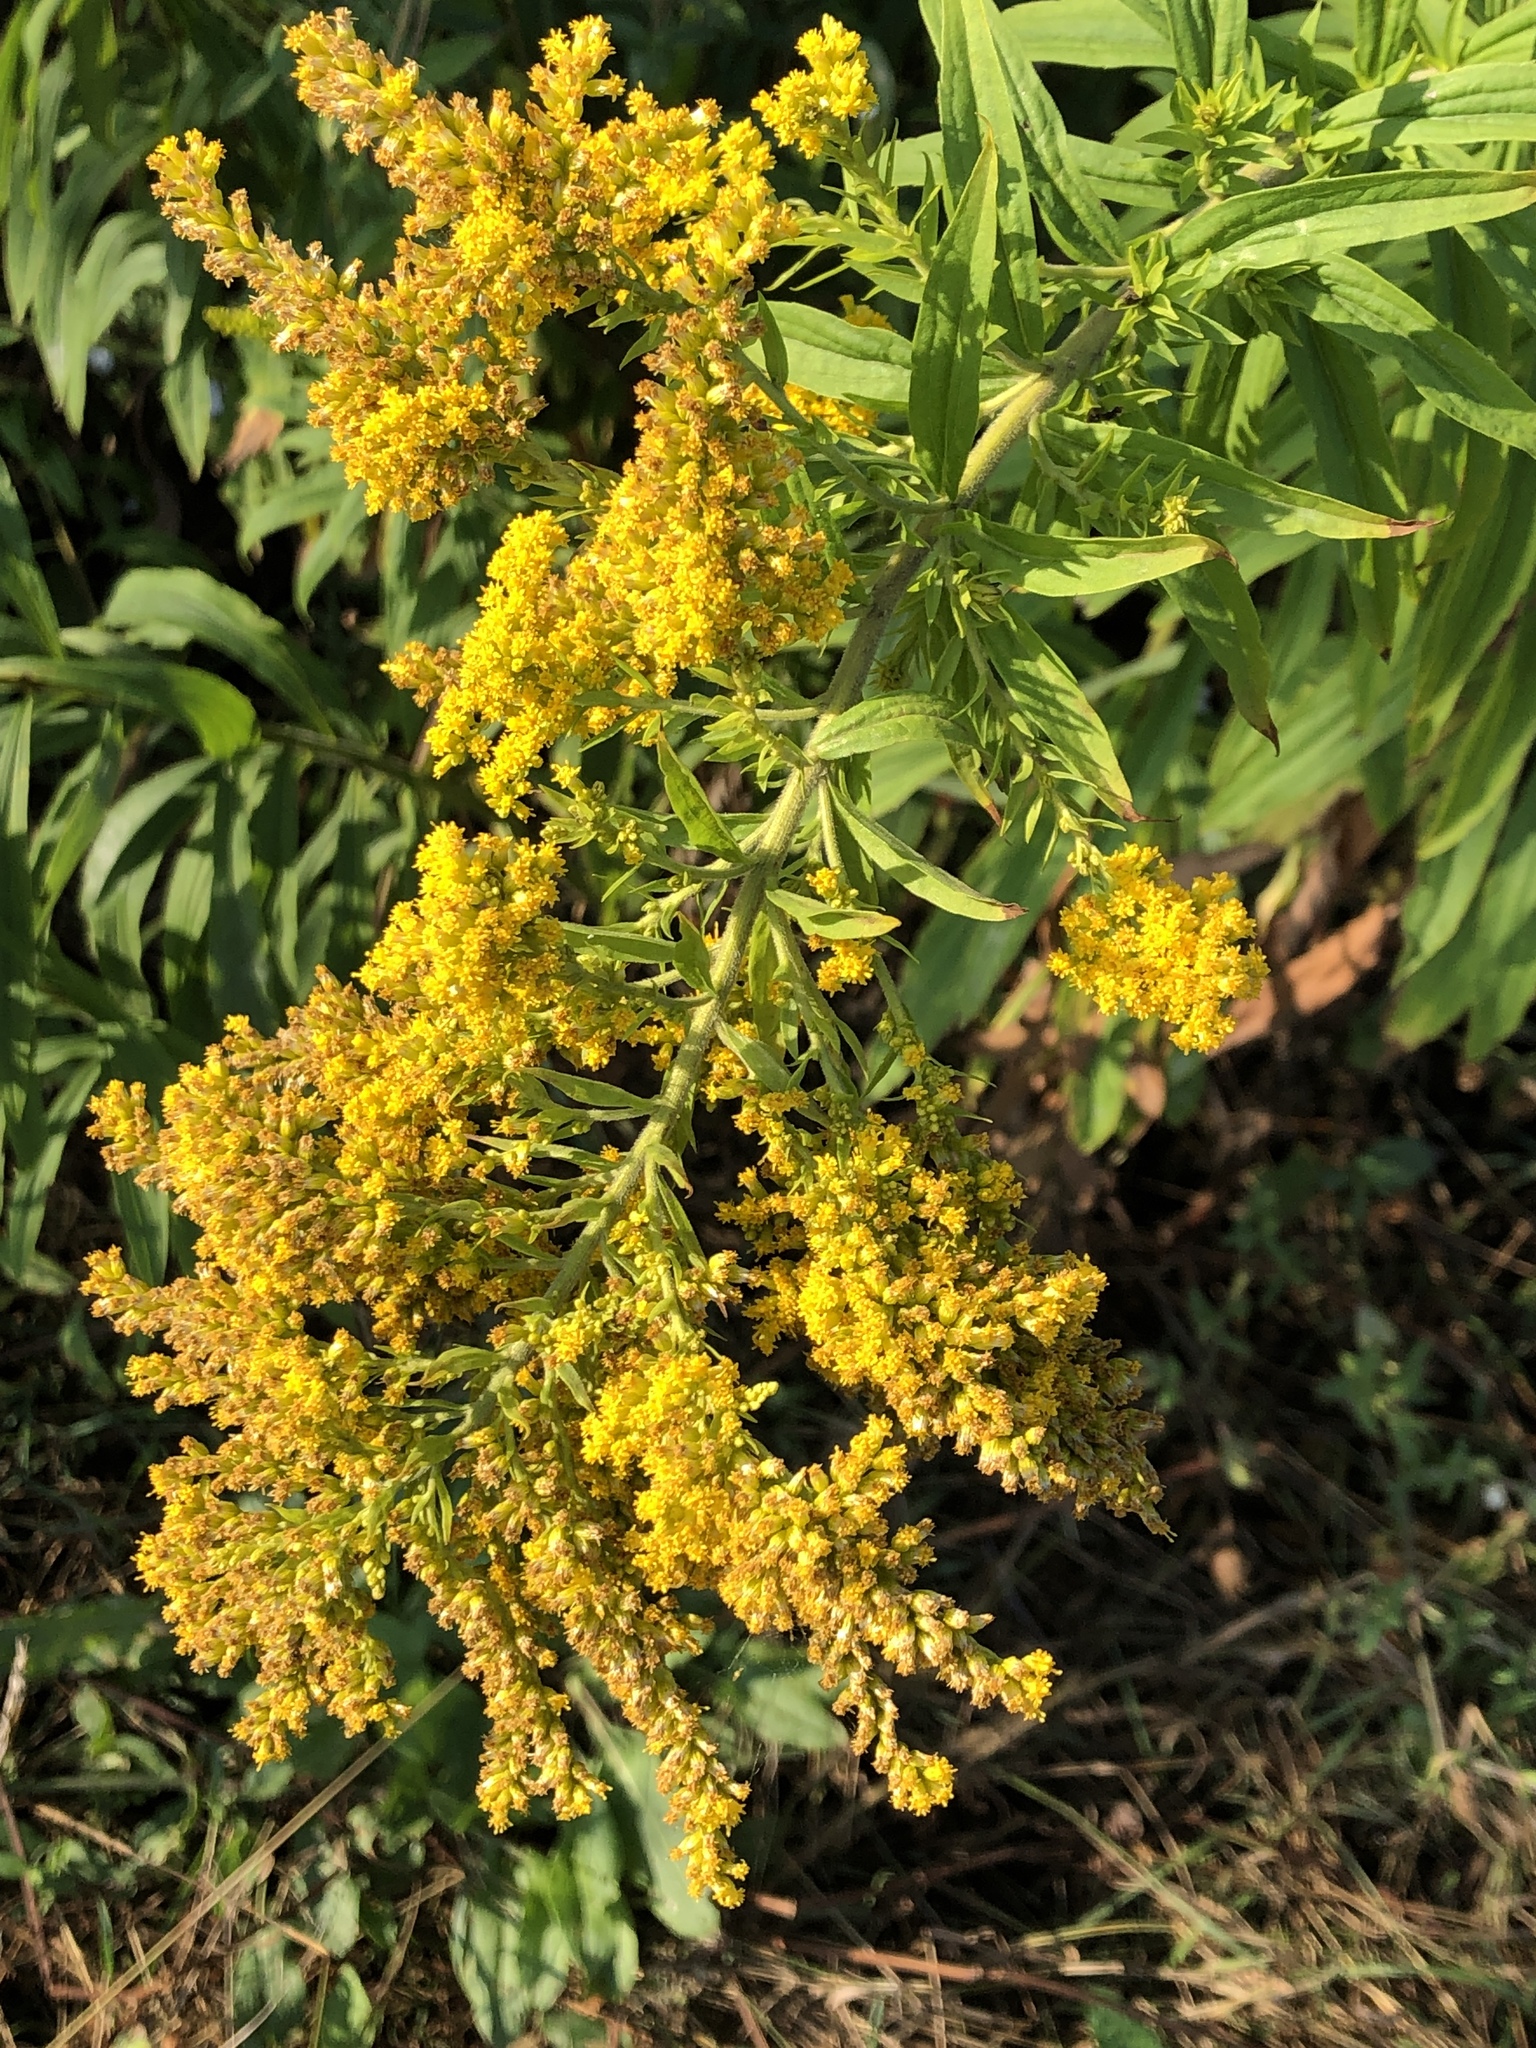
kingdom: Plantae
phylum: Tracheophyta
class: Magnoliopsida
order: Asterales
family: Asteraceae
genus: Solidago
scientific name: Solidago canadensis
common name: Canada goldenrod
